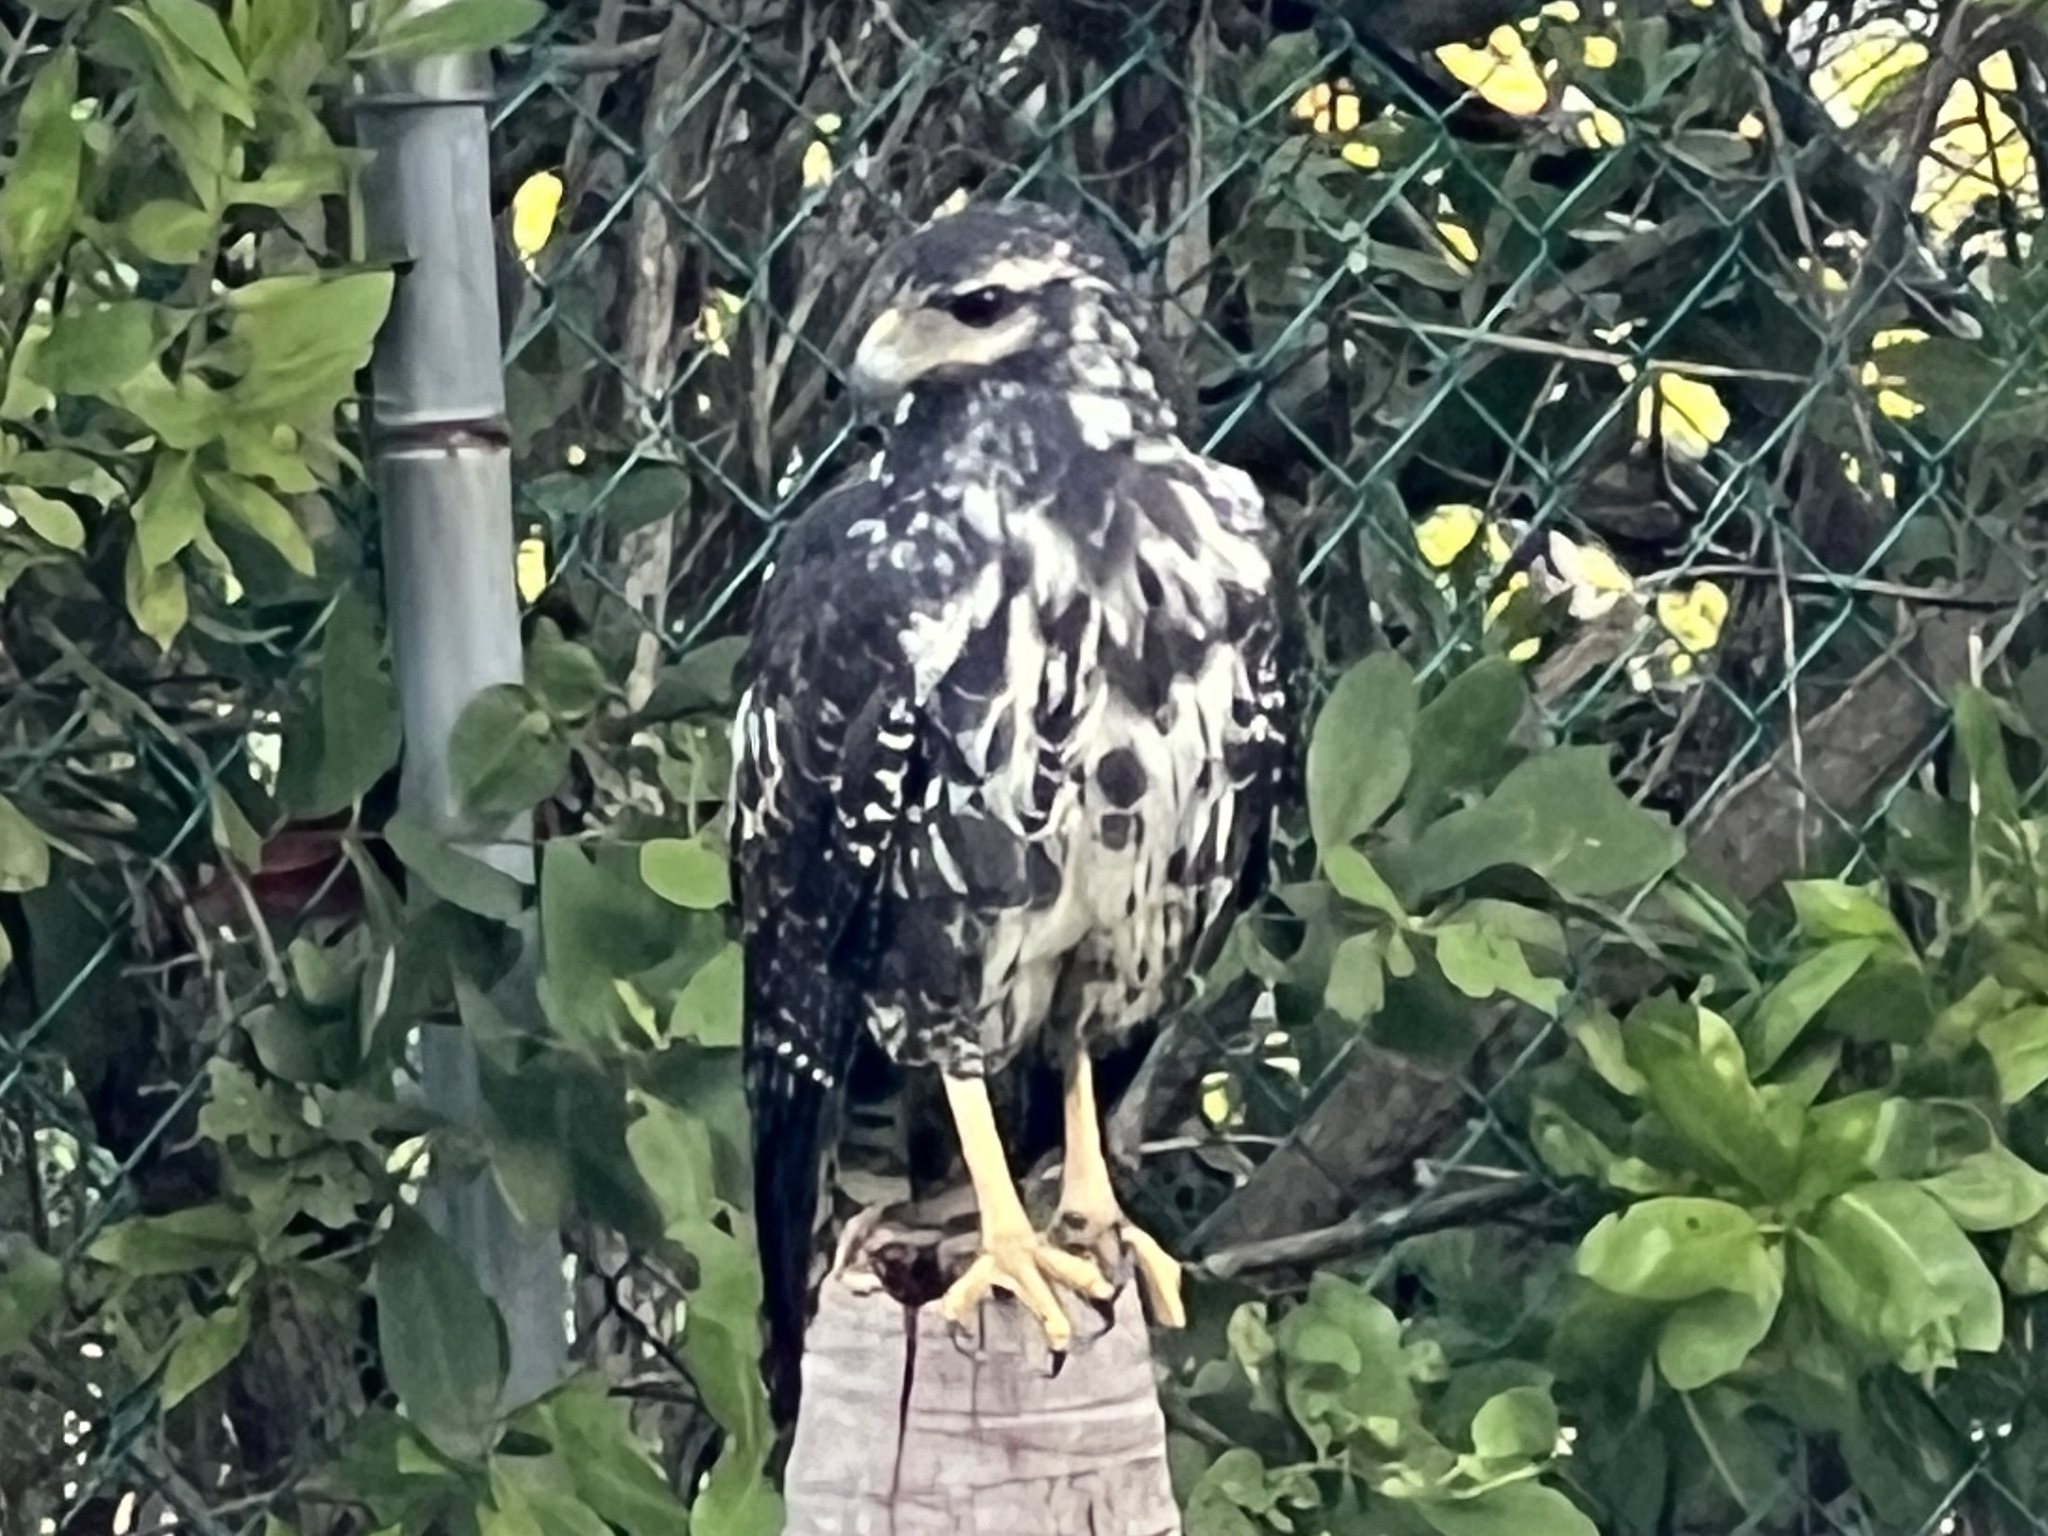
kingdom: Animalia
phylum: Chordata
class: Aves
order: Accipitriformes
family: Accipitridae
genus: Buteogallus
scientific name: Buteogallus anthracinus
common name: Common black hawk
